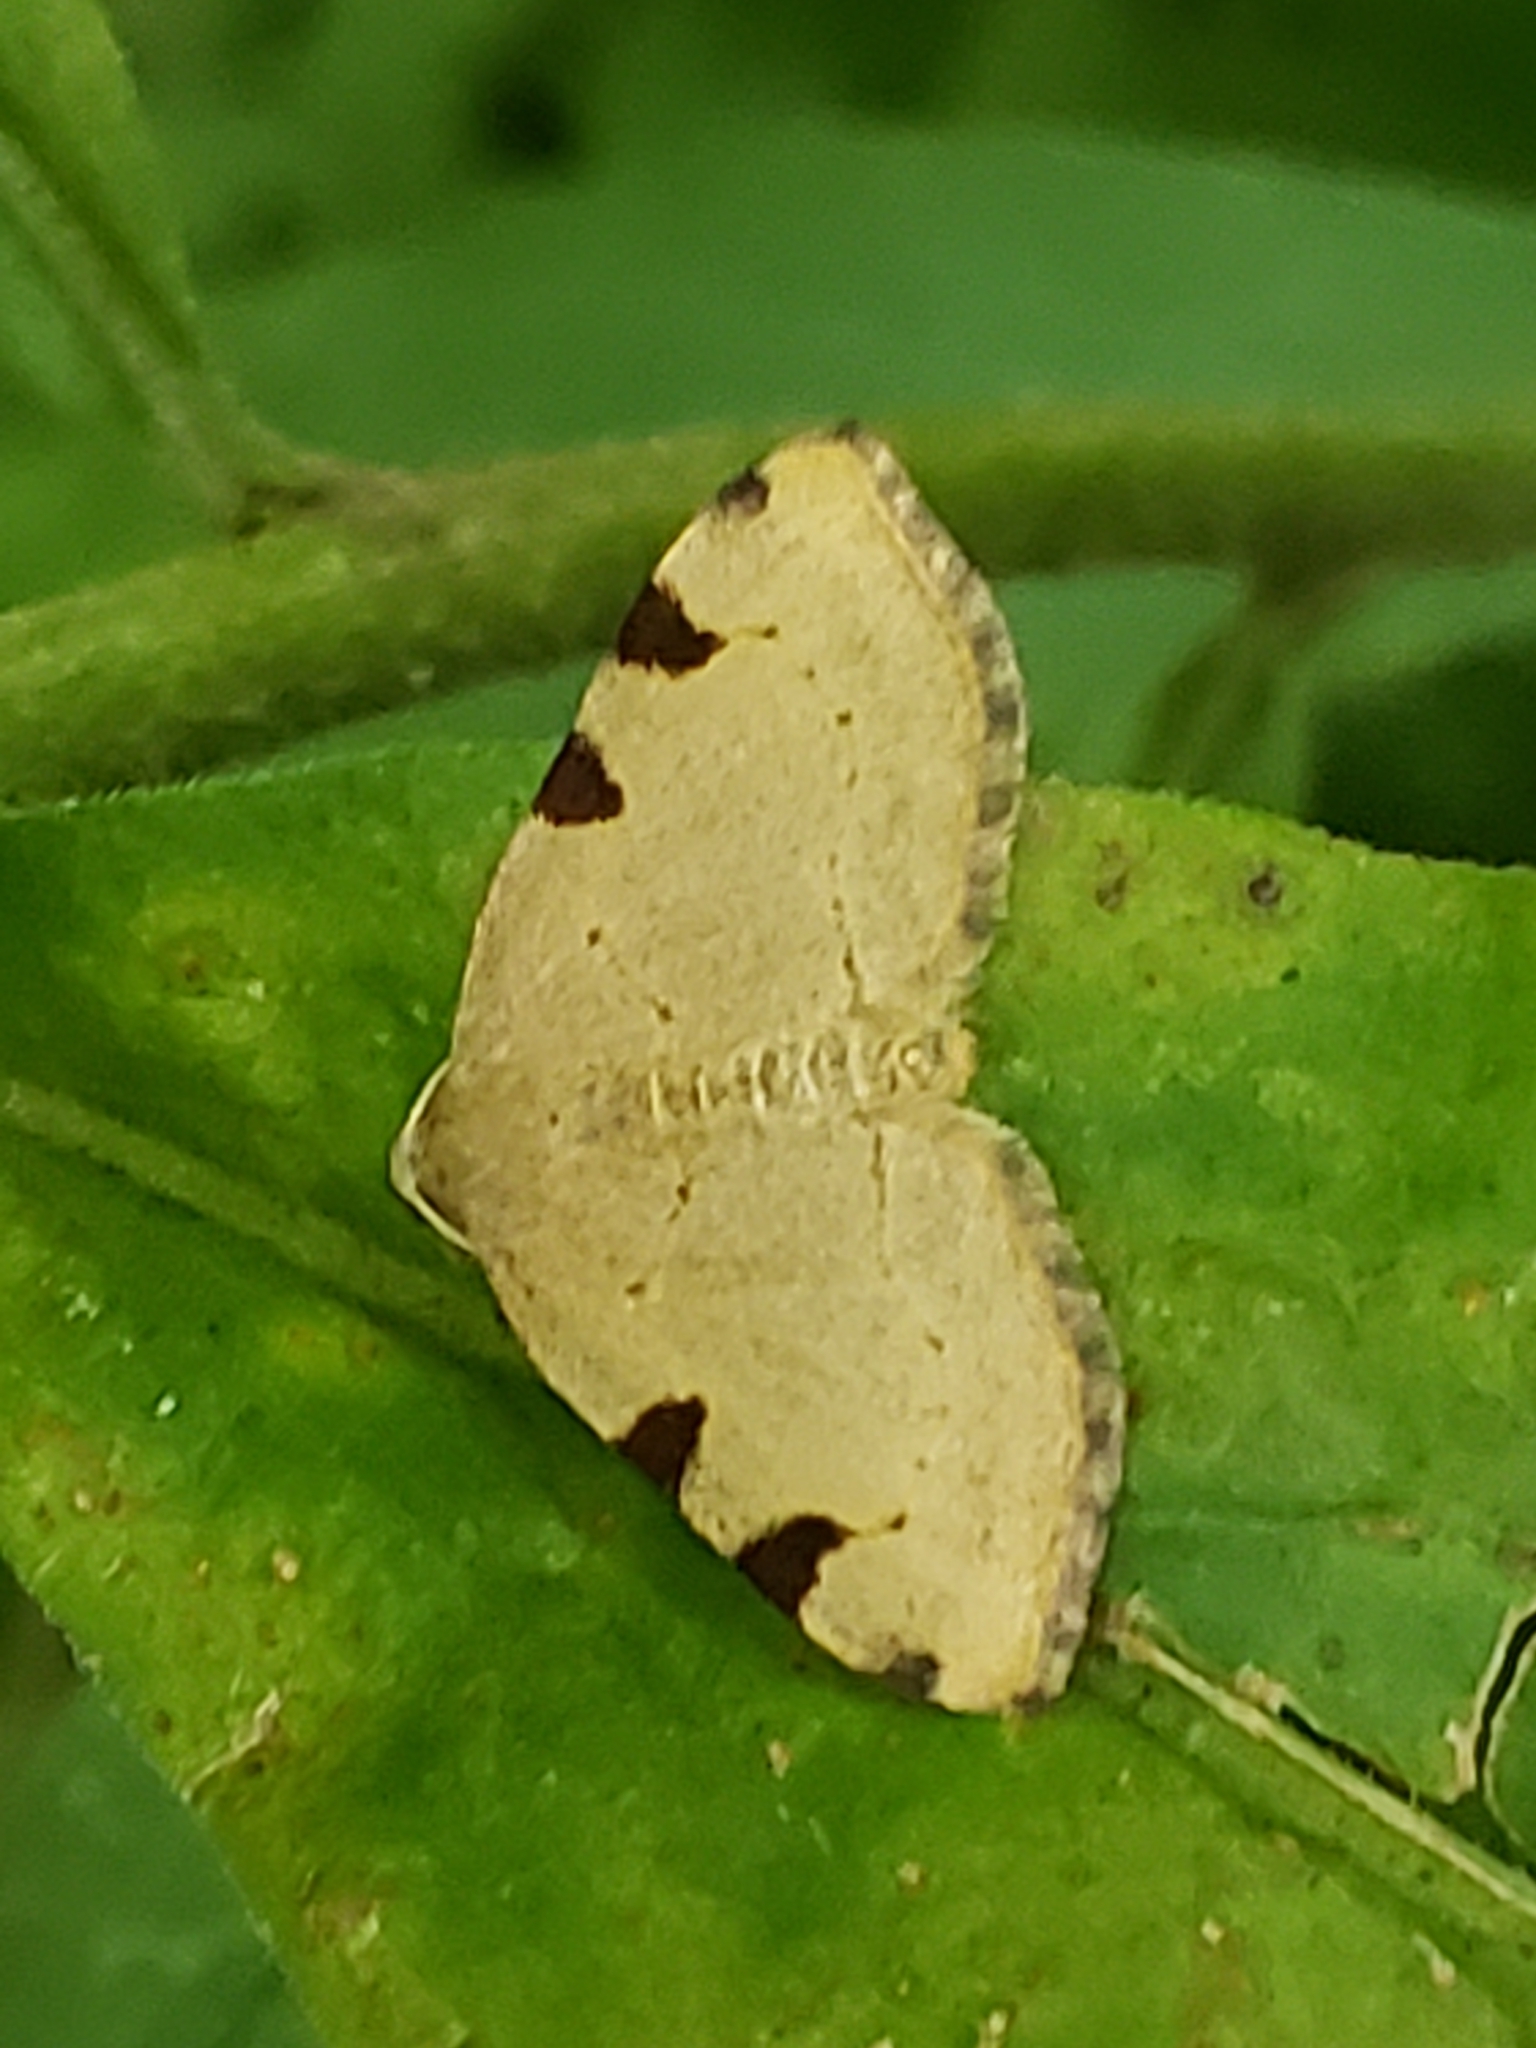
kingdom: Animalia
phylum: Arthropoda
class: Insecta
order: Lepidoptera
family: Geometridae
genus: Heterophleps
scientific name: Heterophleps triguttaria
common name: Three-spotted fillip
